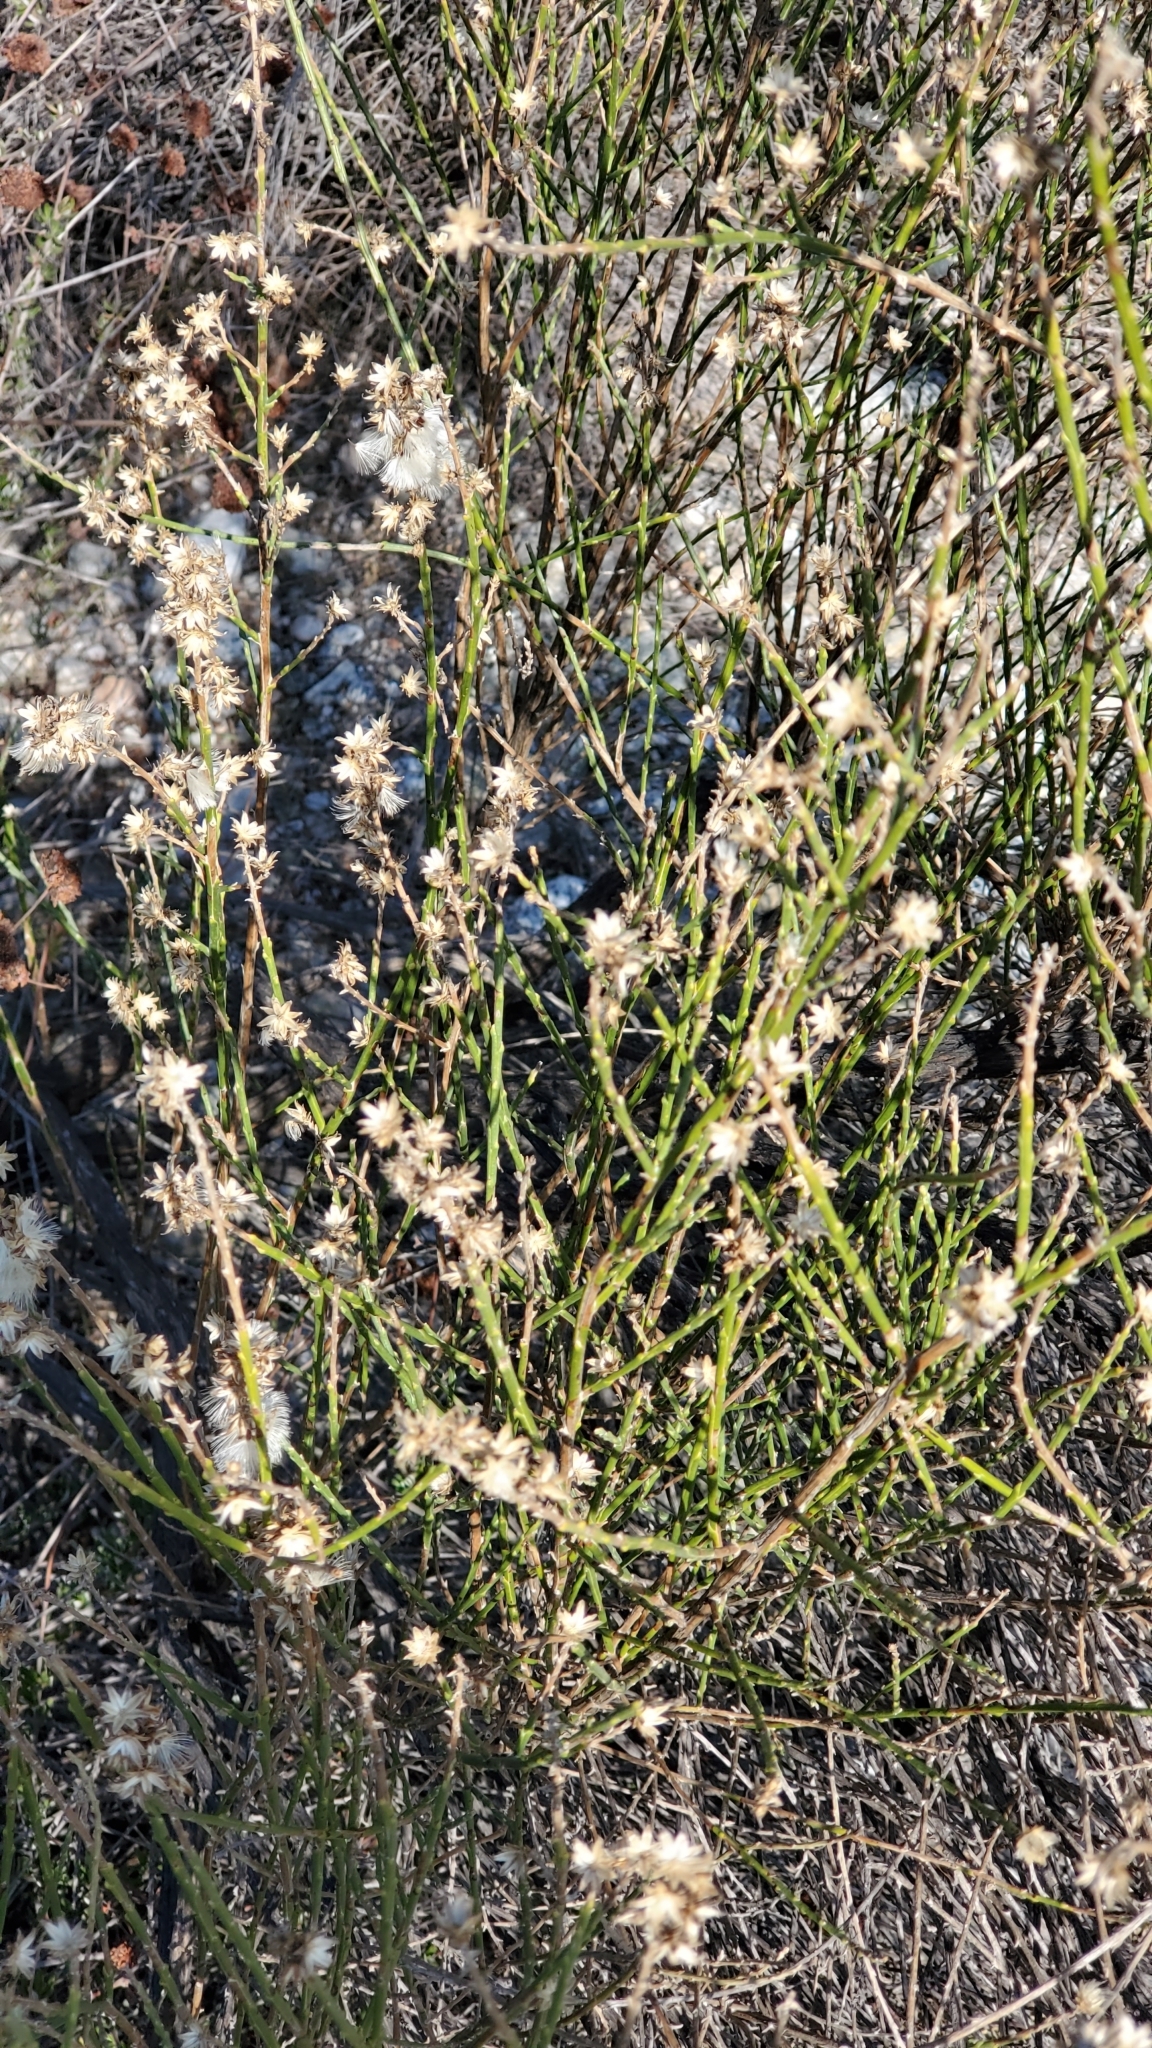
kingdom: Plantae
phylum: Tracheophyta
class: Magnoliopsida
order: Asterales
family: Asteraceae
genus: Lepidospartum
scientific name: Lepidospartum squamatum
